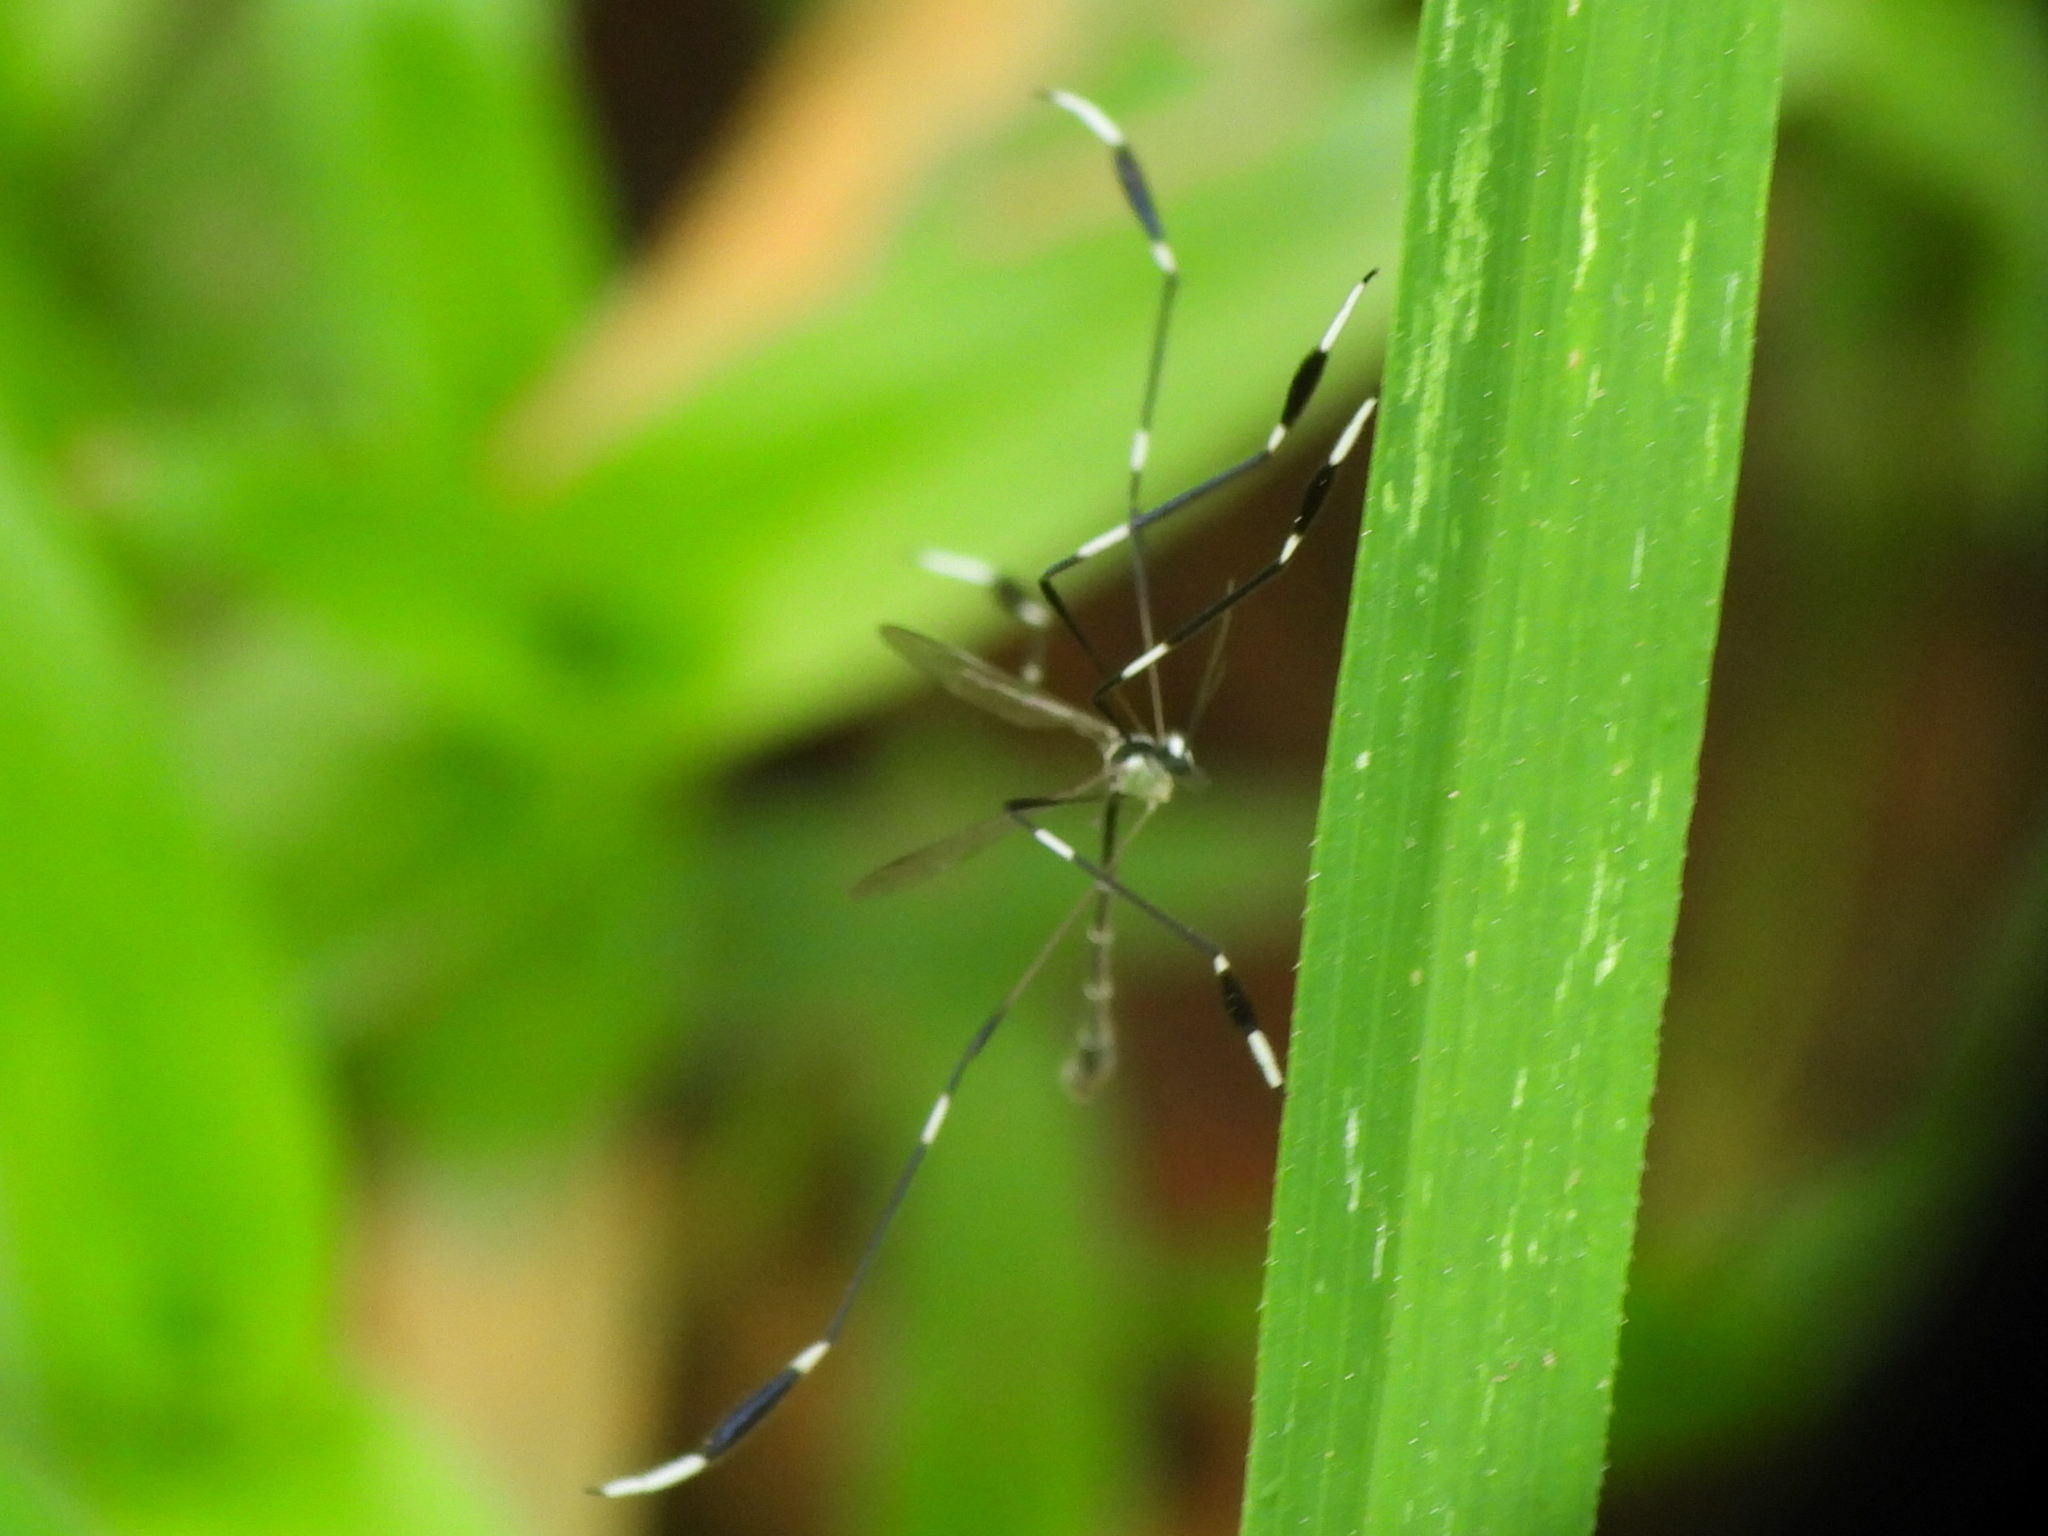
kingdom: Animalia
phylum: Arthropoda
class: Insecta
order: Diptera
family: Ptychopteridae
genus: Bittacomorpha
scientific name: Bittacomorpha clavipes
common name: Eastern phantom crane fly
